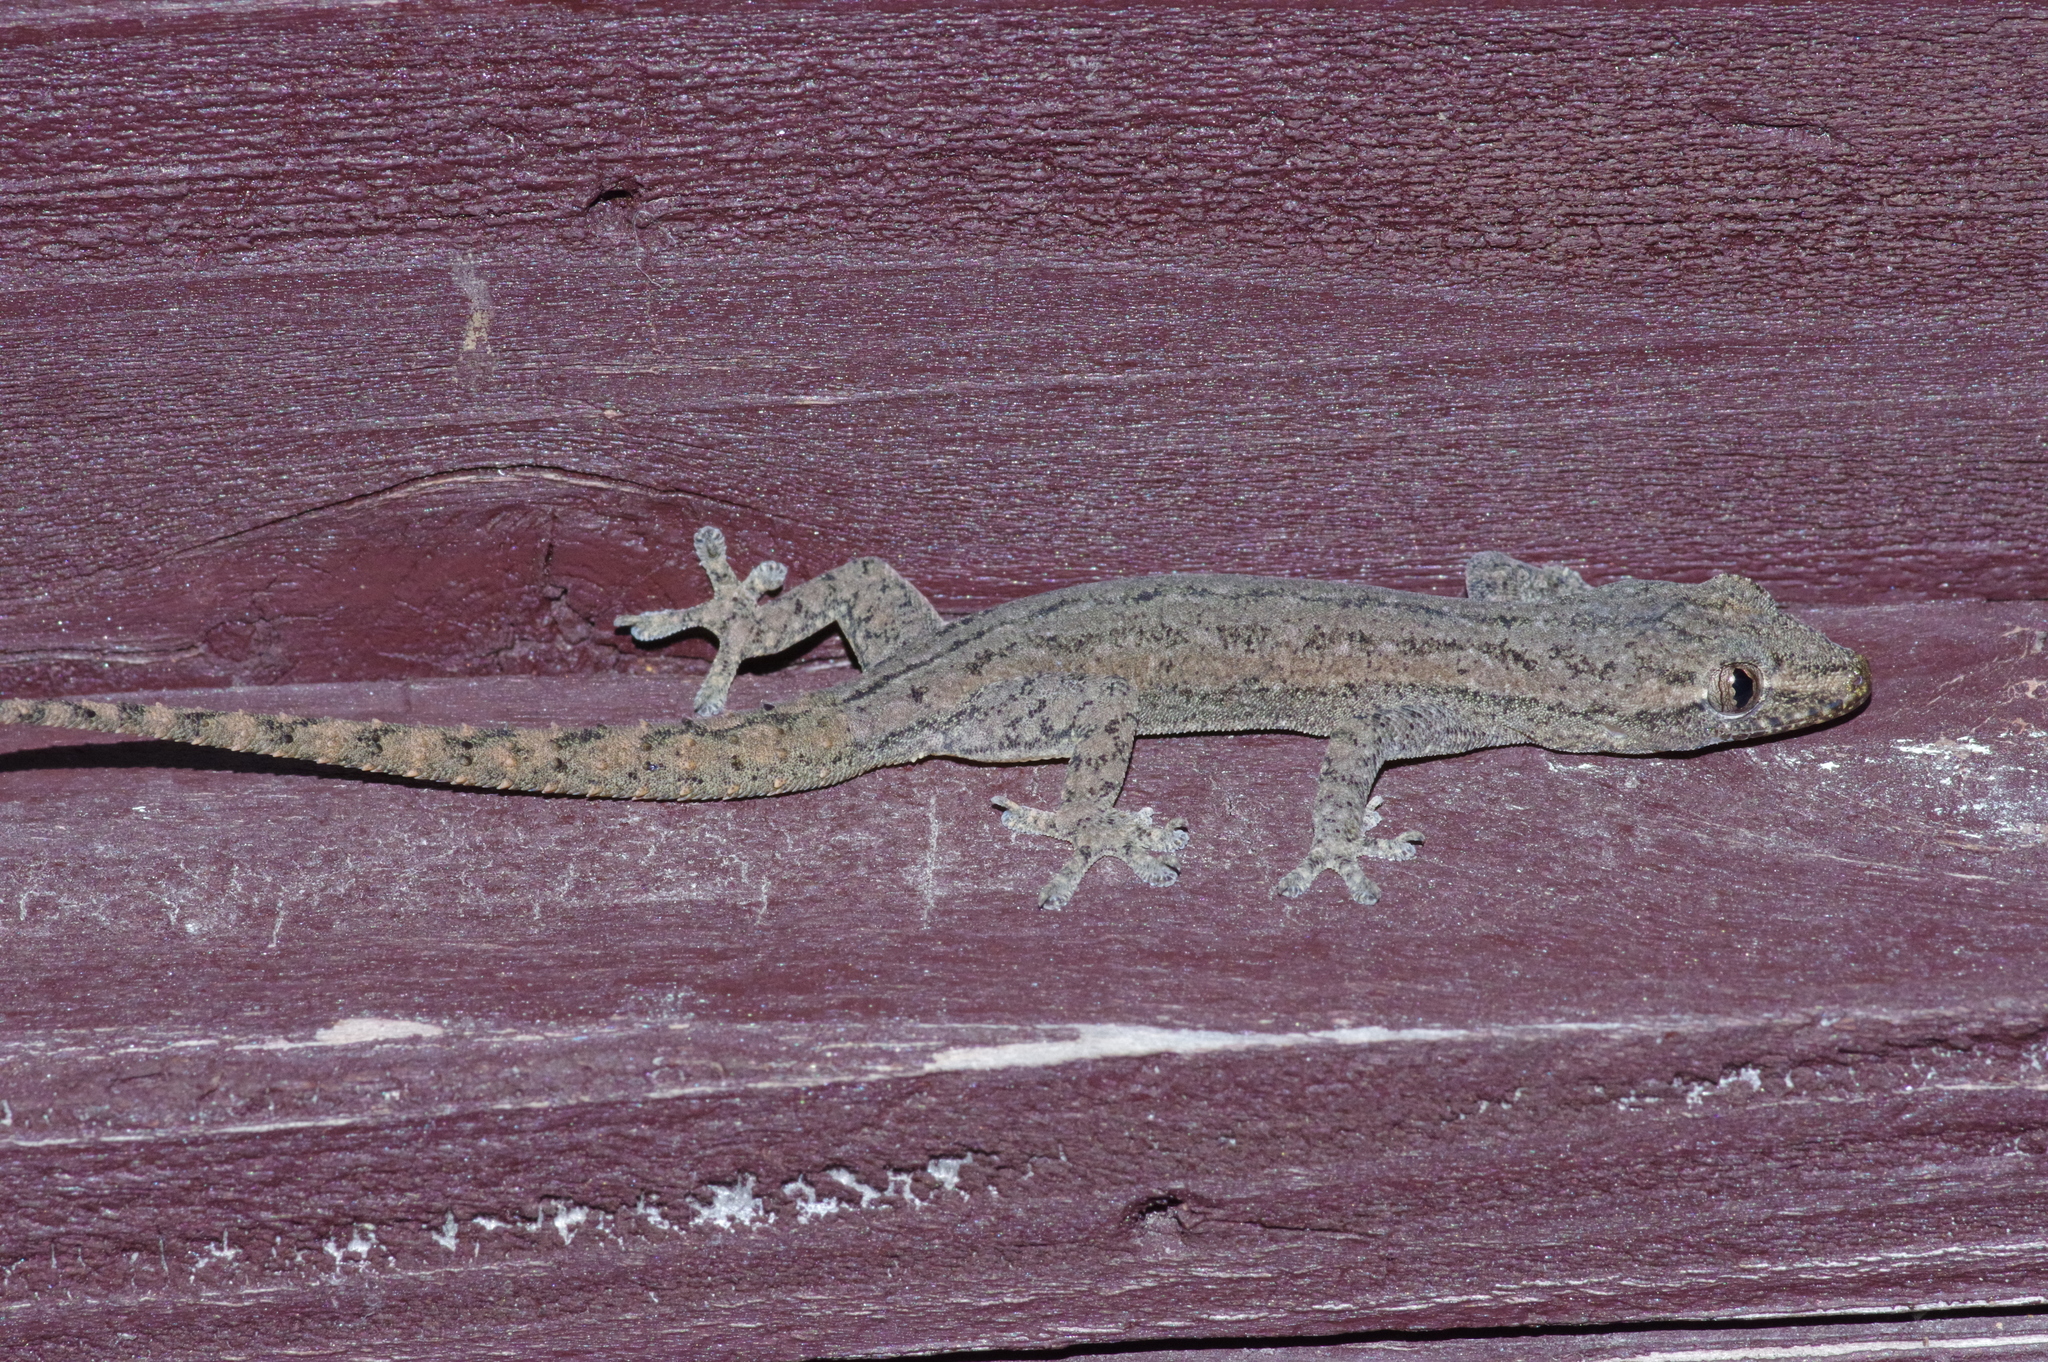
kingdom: Animalia
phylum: Chordata
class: Squamata
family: Gekkonidae
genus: Hemidactylus
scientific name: Hemidactylus frenatus
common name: Common house gecko
